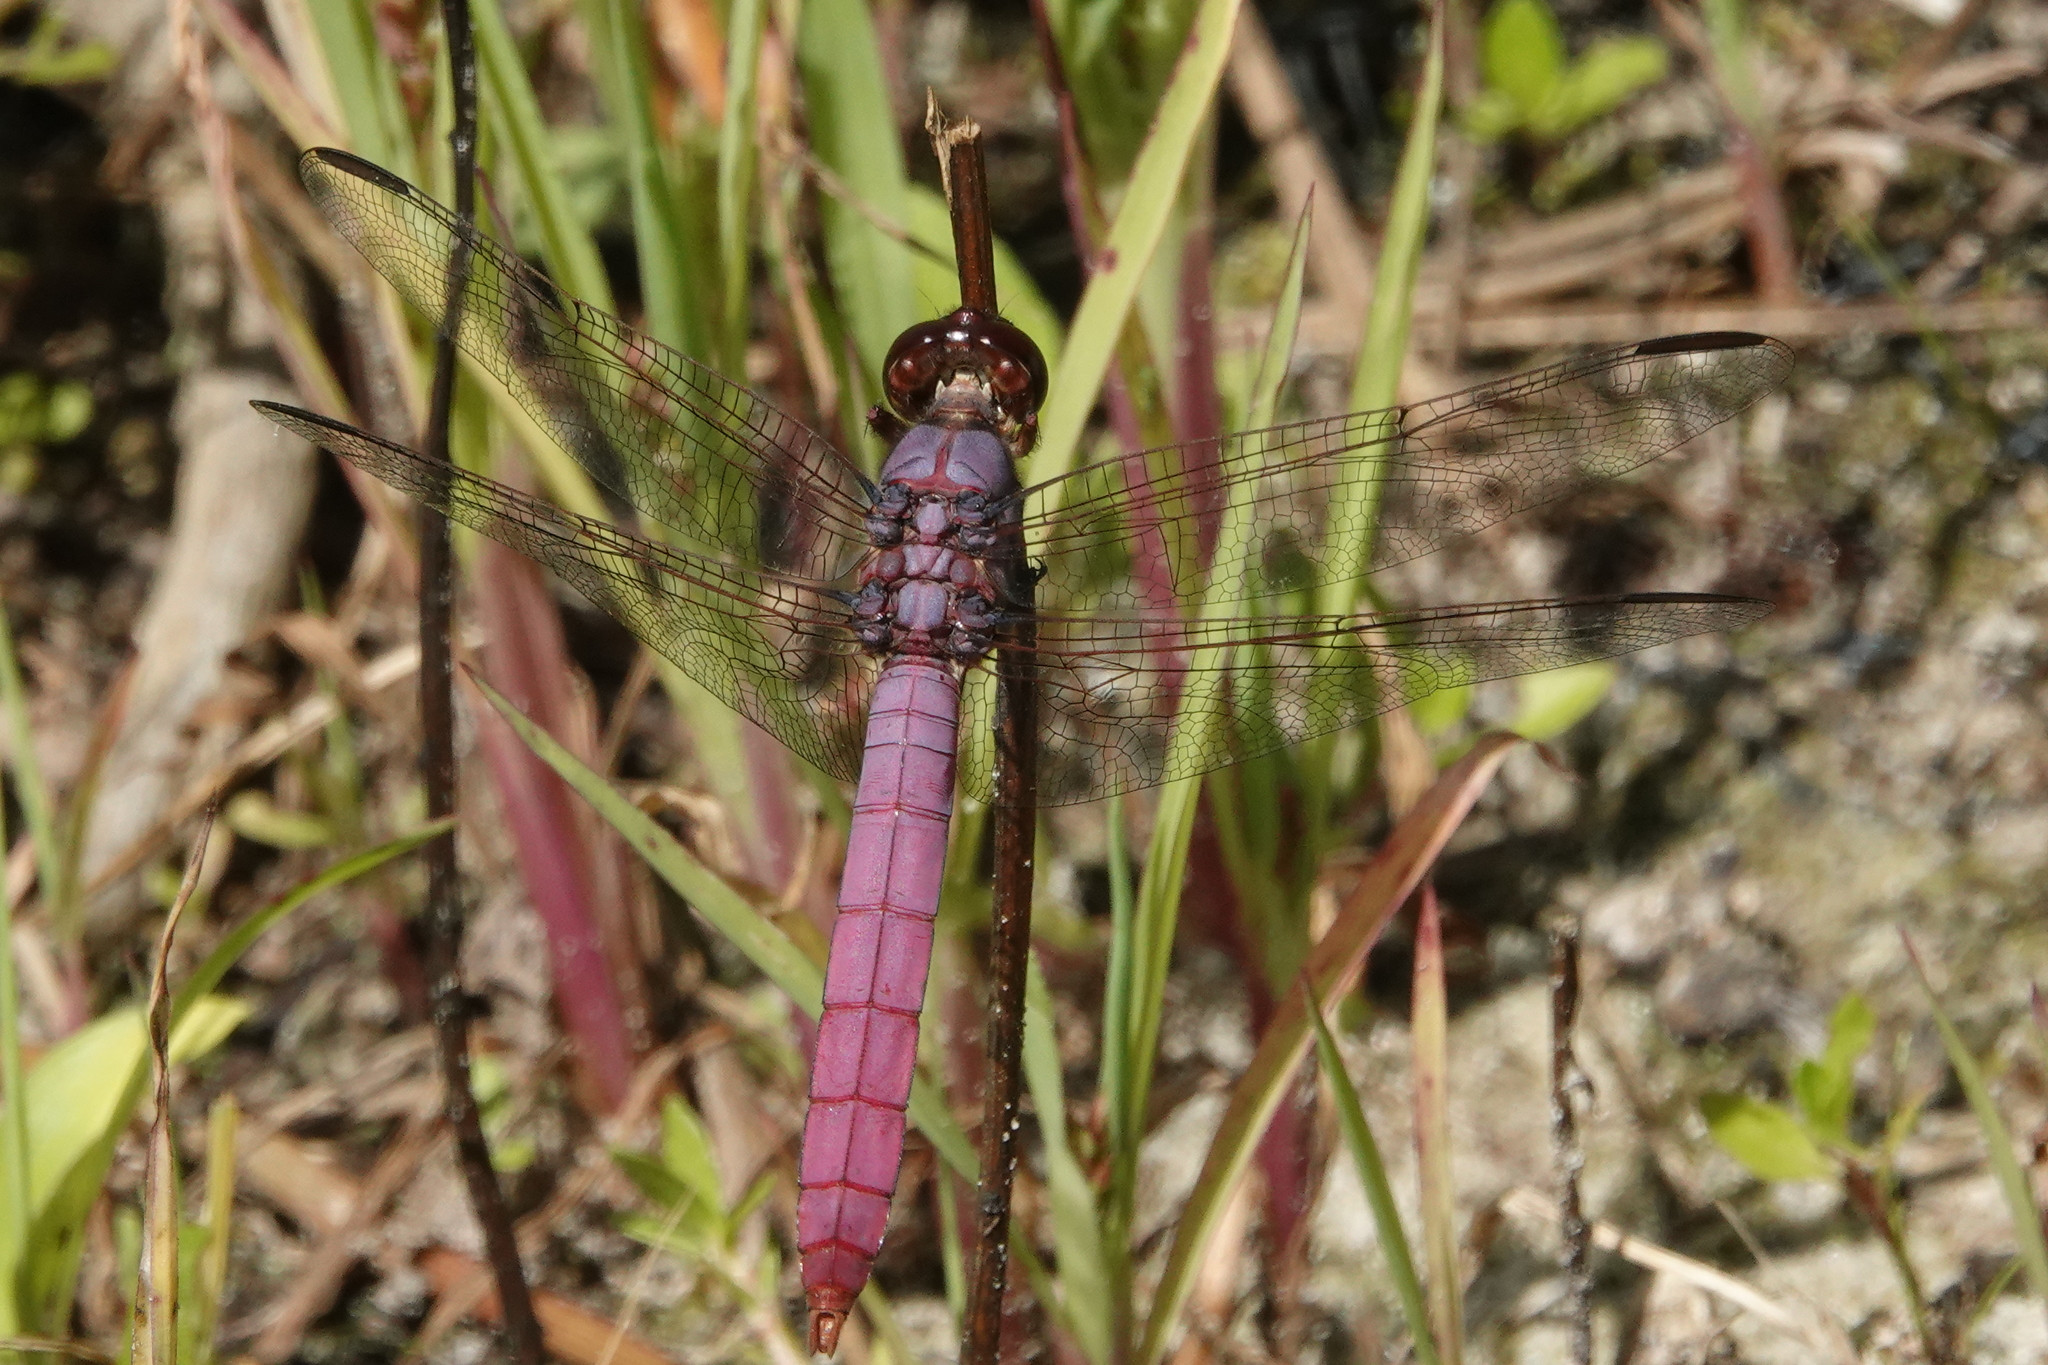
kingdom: Animalia
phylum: Arthropoda
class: Insecta
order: Odonata
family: Libellulidae
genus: Orthemis
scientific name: Orthemis ferruginea
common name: Roseate skimmer
